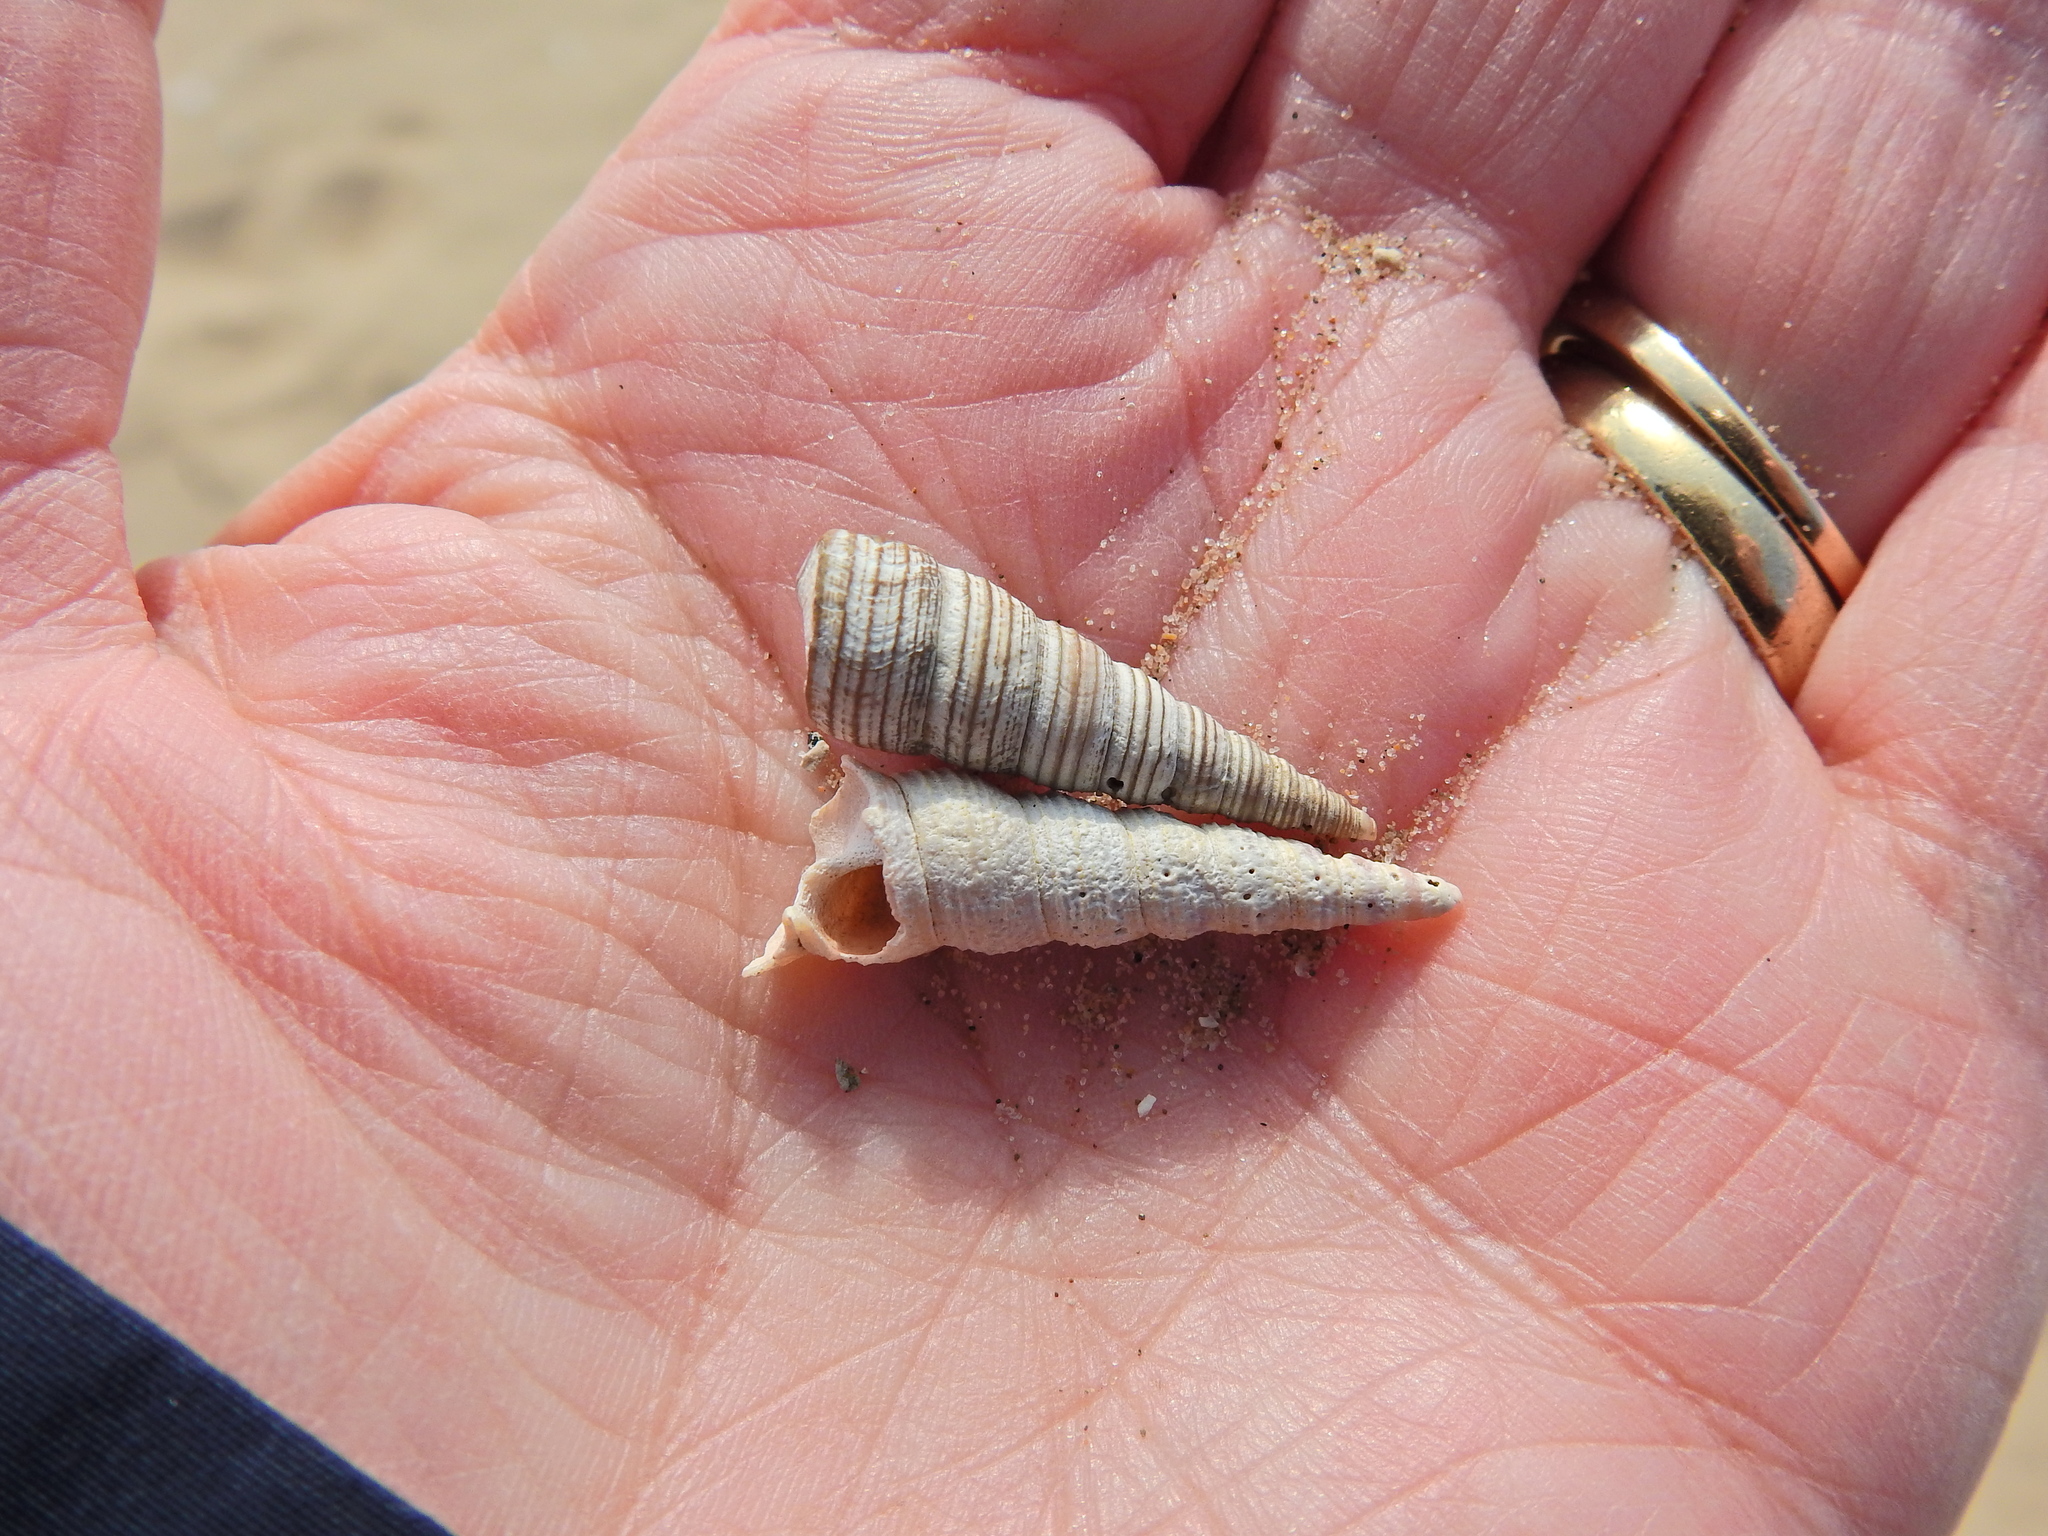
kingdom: Animalia
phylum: Mollusca
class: Gastropoda
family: Turritellidae
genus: Turritellinella
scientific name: Turritellinella tricarinata
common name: Auger shell
